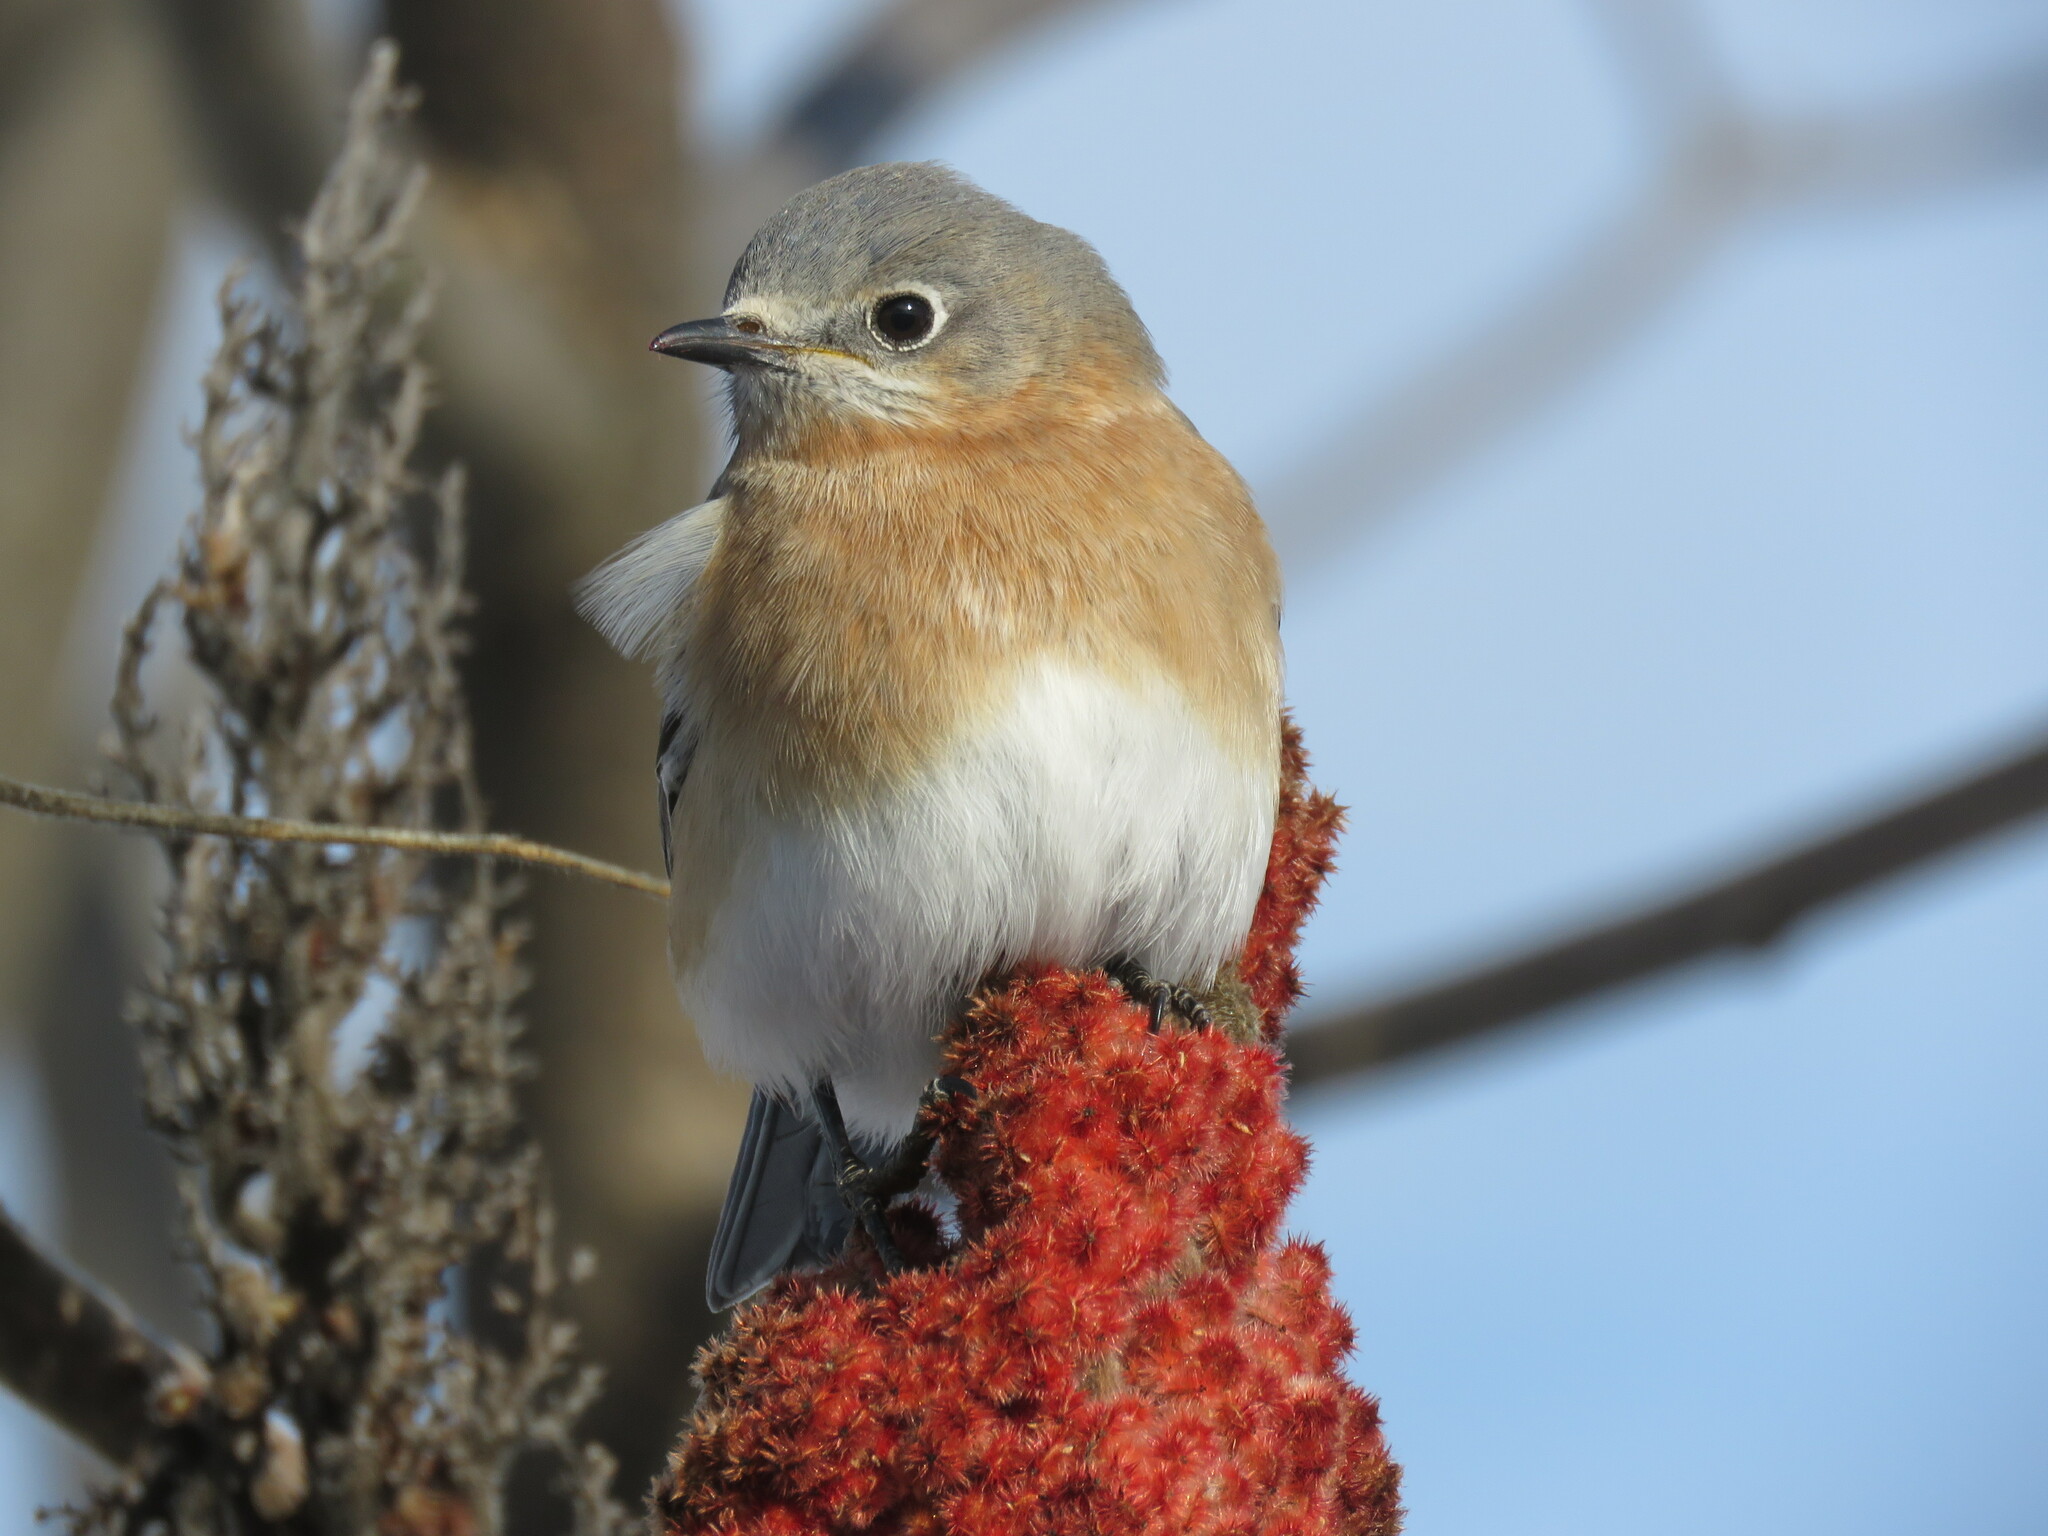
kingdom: Animalia
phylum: Chordata
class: Aves
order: Passeriformes
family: Turdidae
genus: Sialia
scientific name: Sialia sialis
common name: Eastern bluebird
